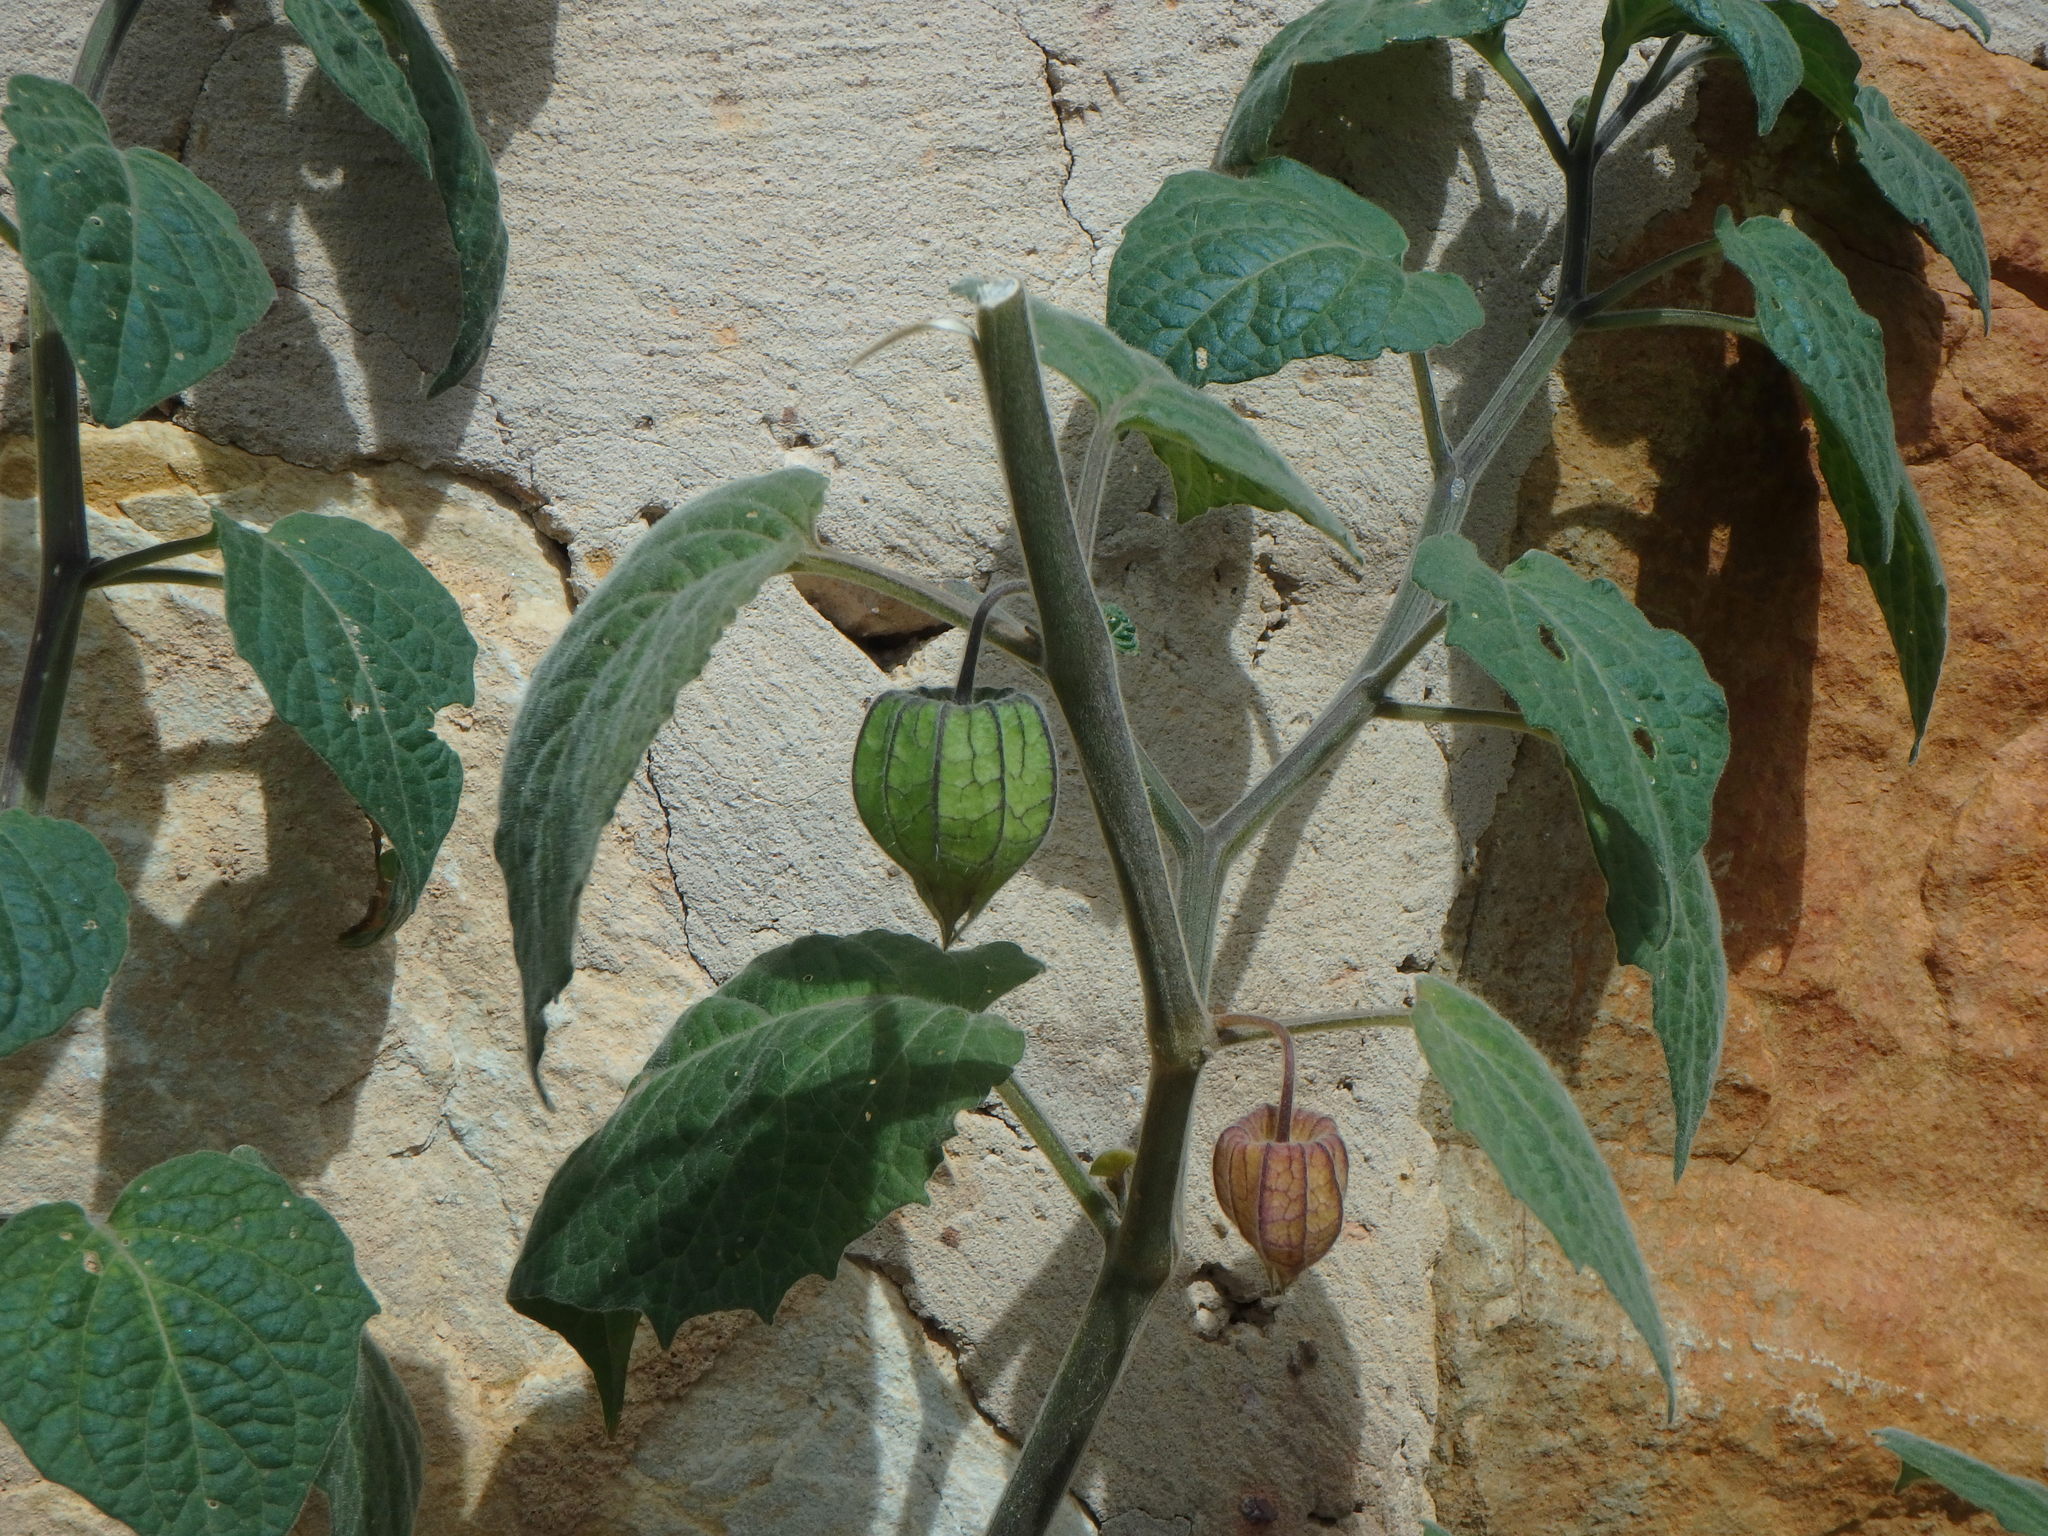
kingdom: Plantae
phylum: Tracheophyta
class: Magnoliopsida
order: Solanales
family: Solanaceae
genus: Physalis
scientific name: Physalis peruviana
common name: Cape-gooseberry
